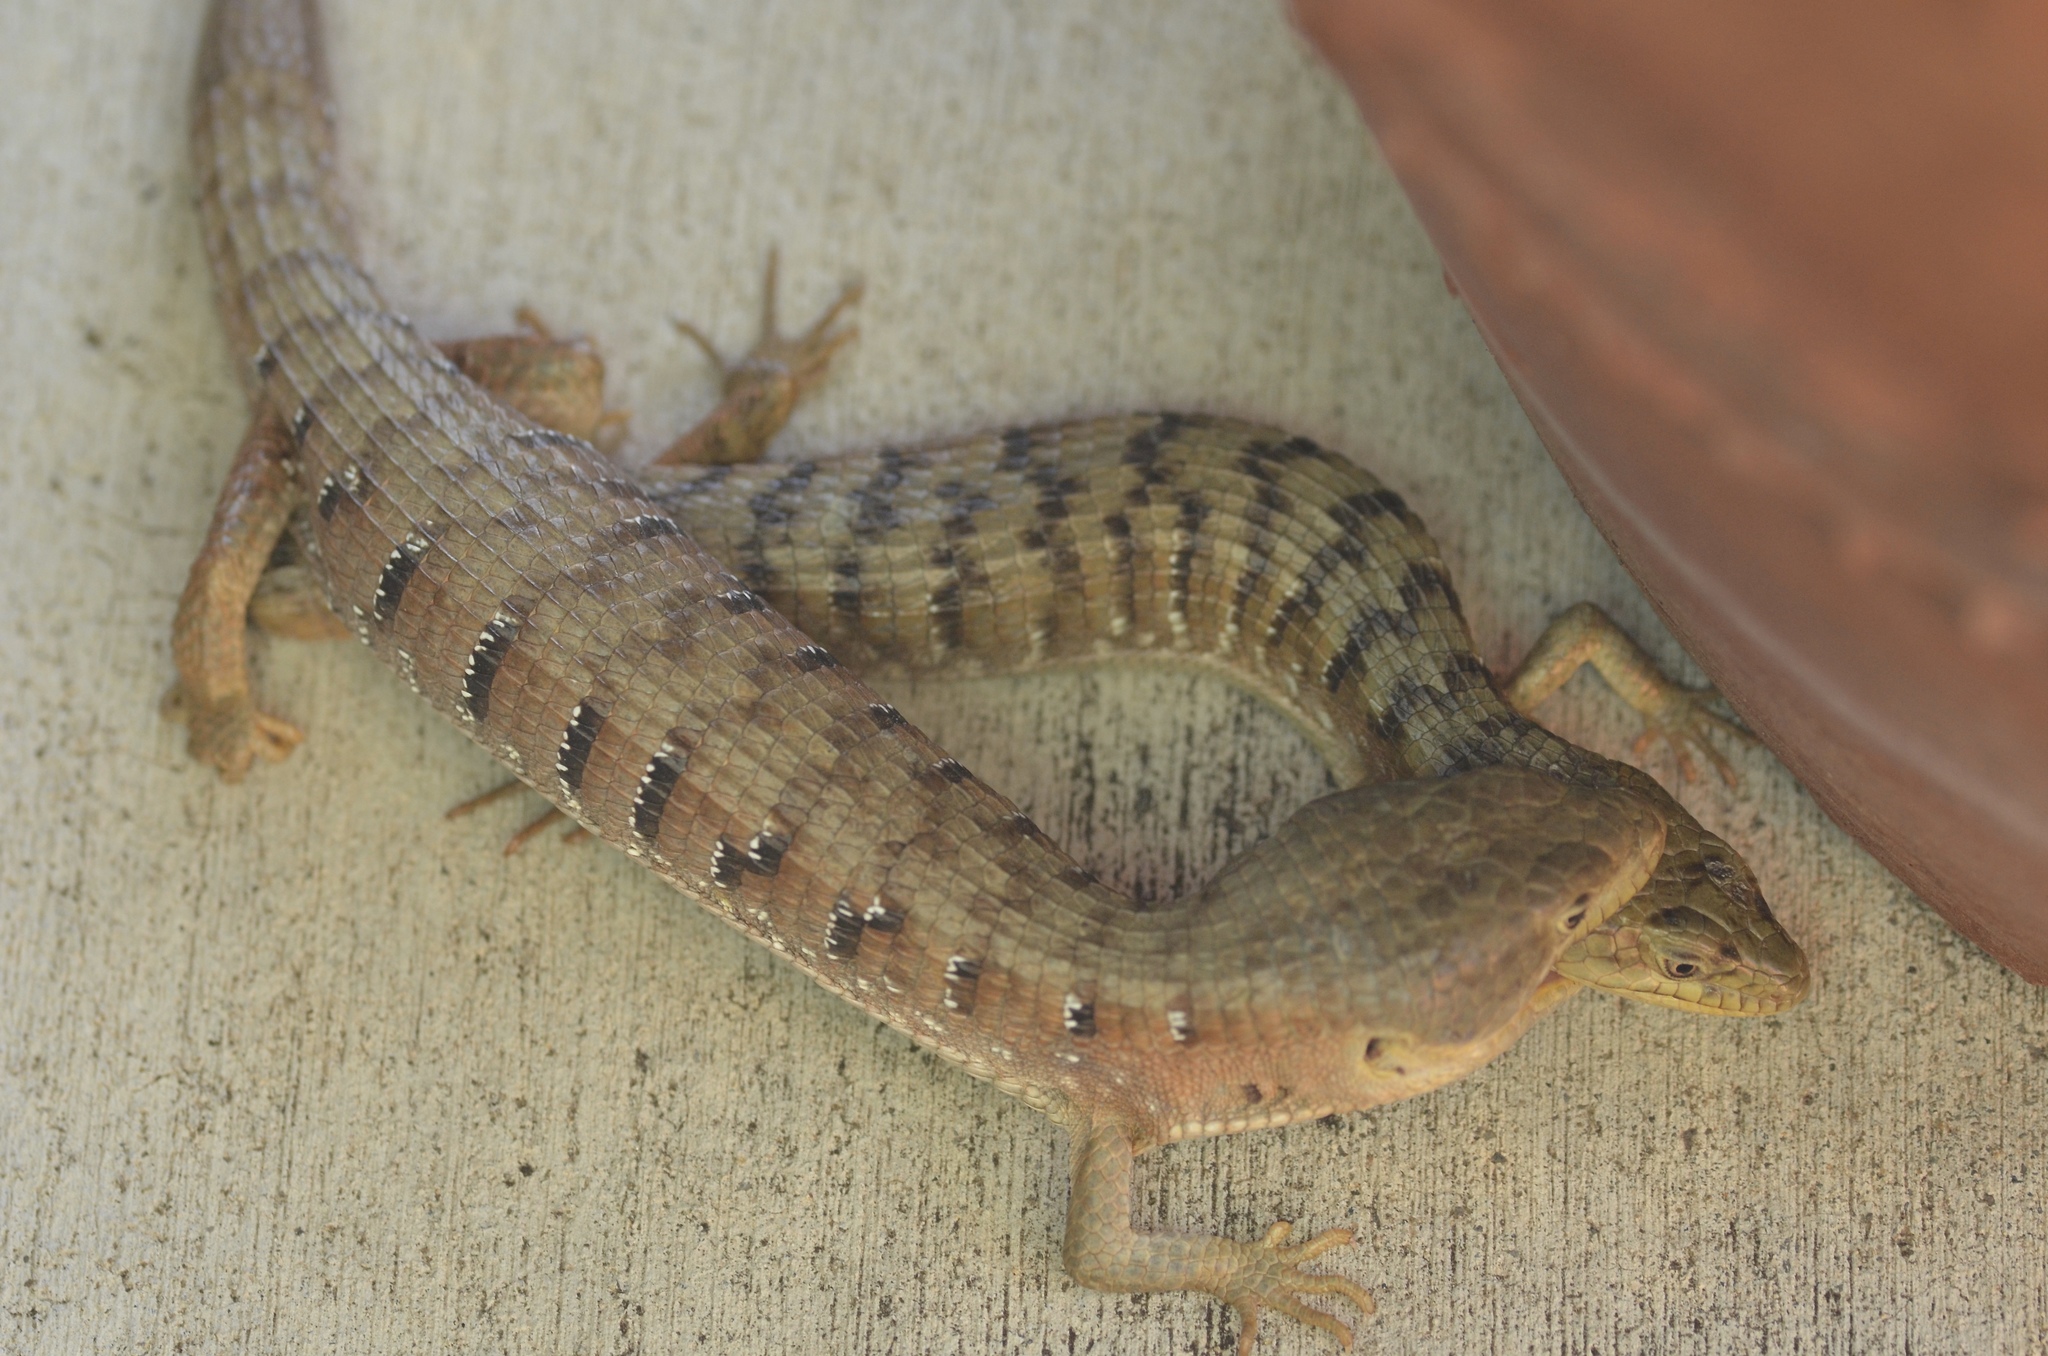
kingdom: Animalia
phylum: Chordata
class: Squamata
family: Anguidae
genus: Elgaria
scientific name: Elgaria multicarinata
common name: Southern alligator lizard
